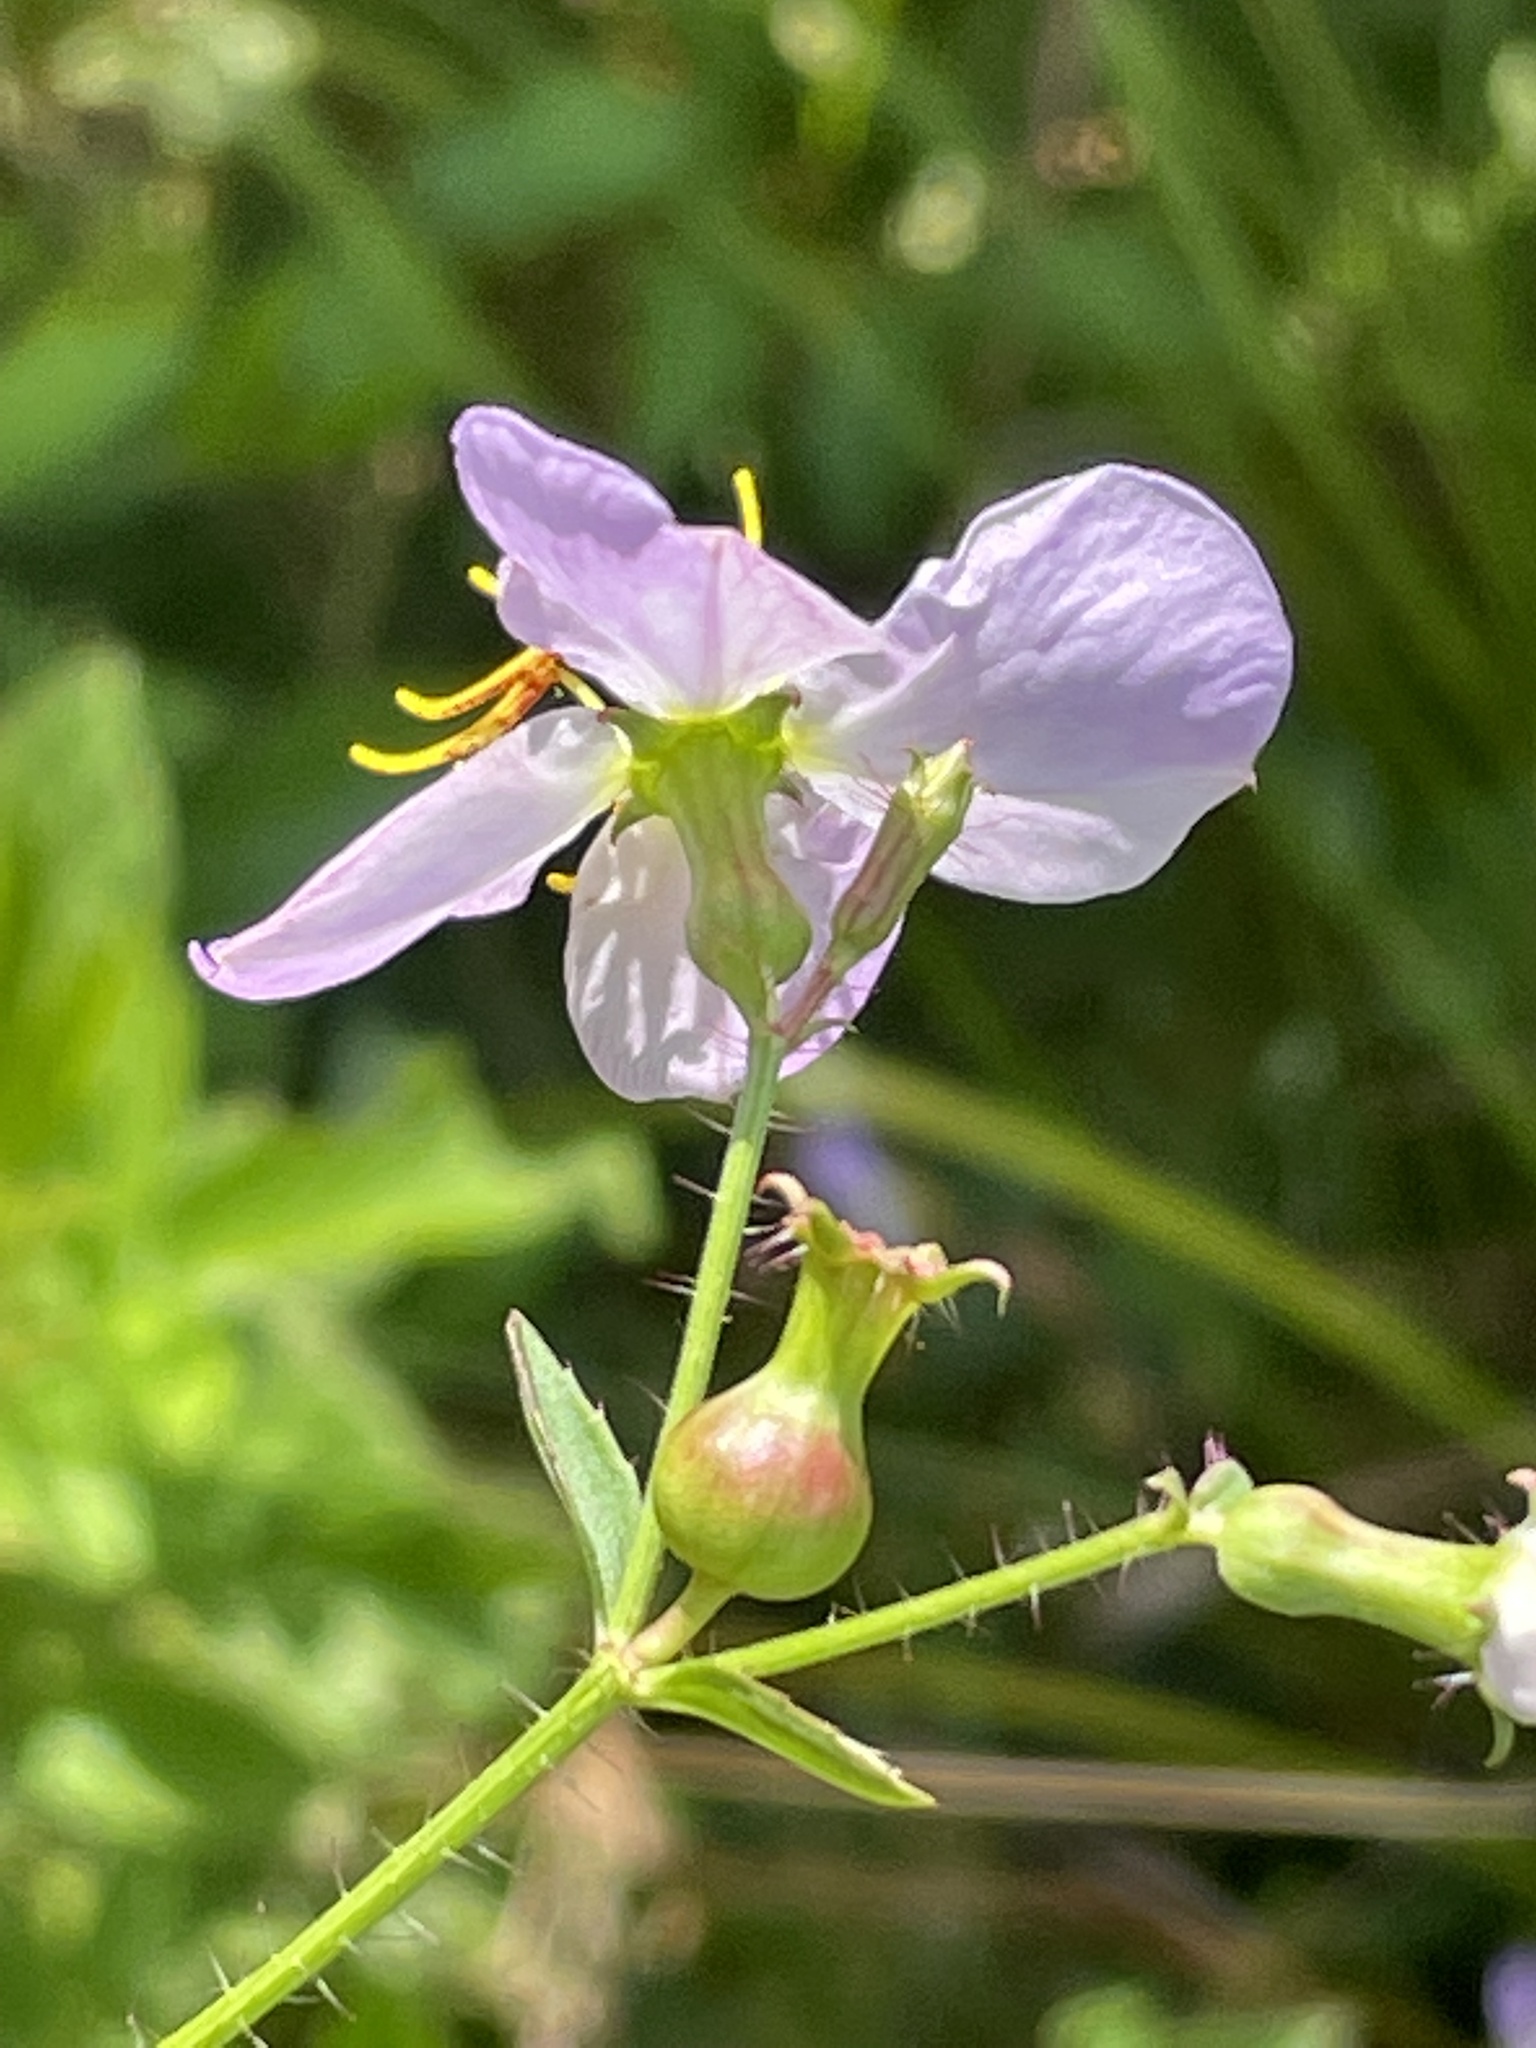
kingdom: Plantae
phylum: Tracheophyta
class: Magnoliopsida
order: Myrtales
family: Melastomataceae
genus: Rhexia
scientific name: Rhexia mariana
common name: Dull meadow-pitcher
